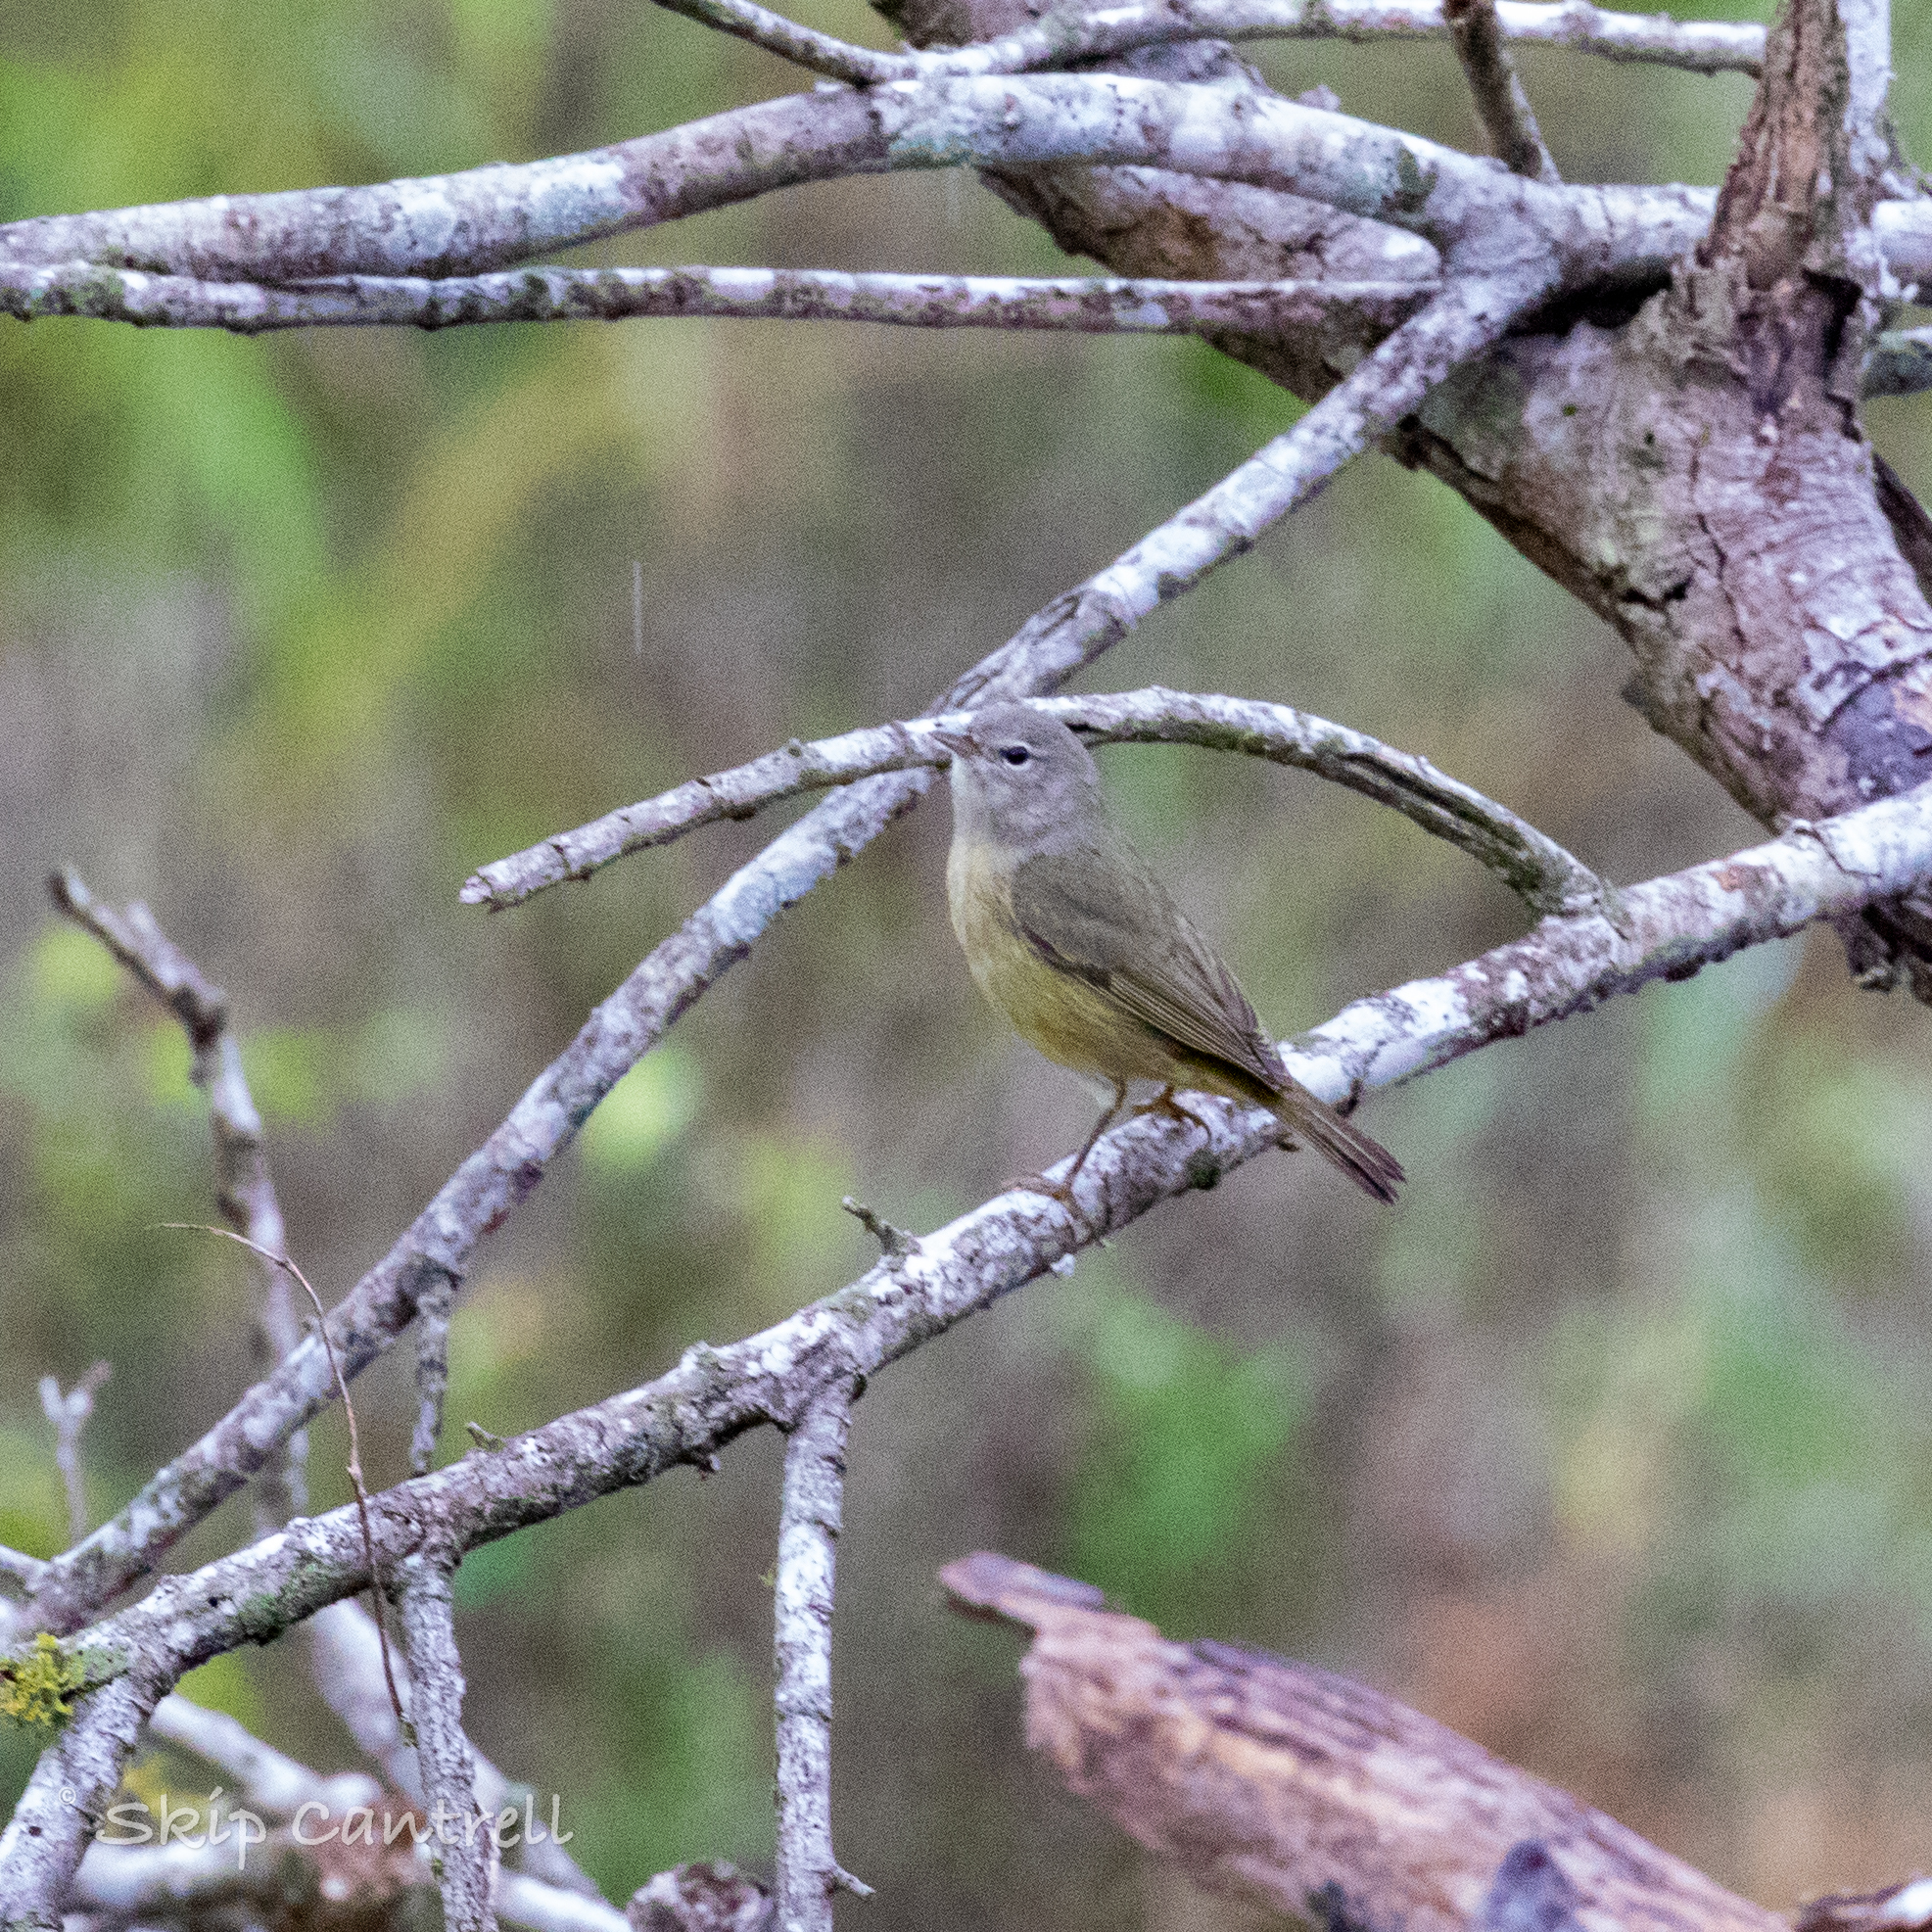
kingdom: Animalia
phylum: Chordata
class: Aves
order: Passeriformes
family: Parulidae
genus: Leiothlypis
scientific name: Leiothlypis celata
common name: Orange-crowned warbler
